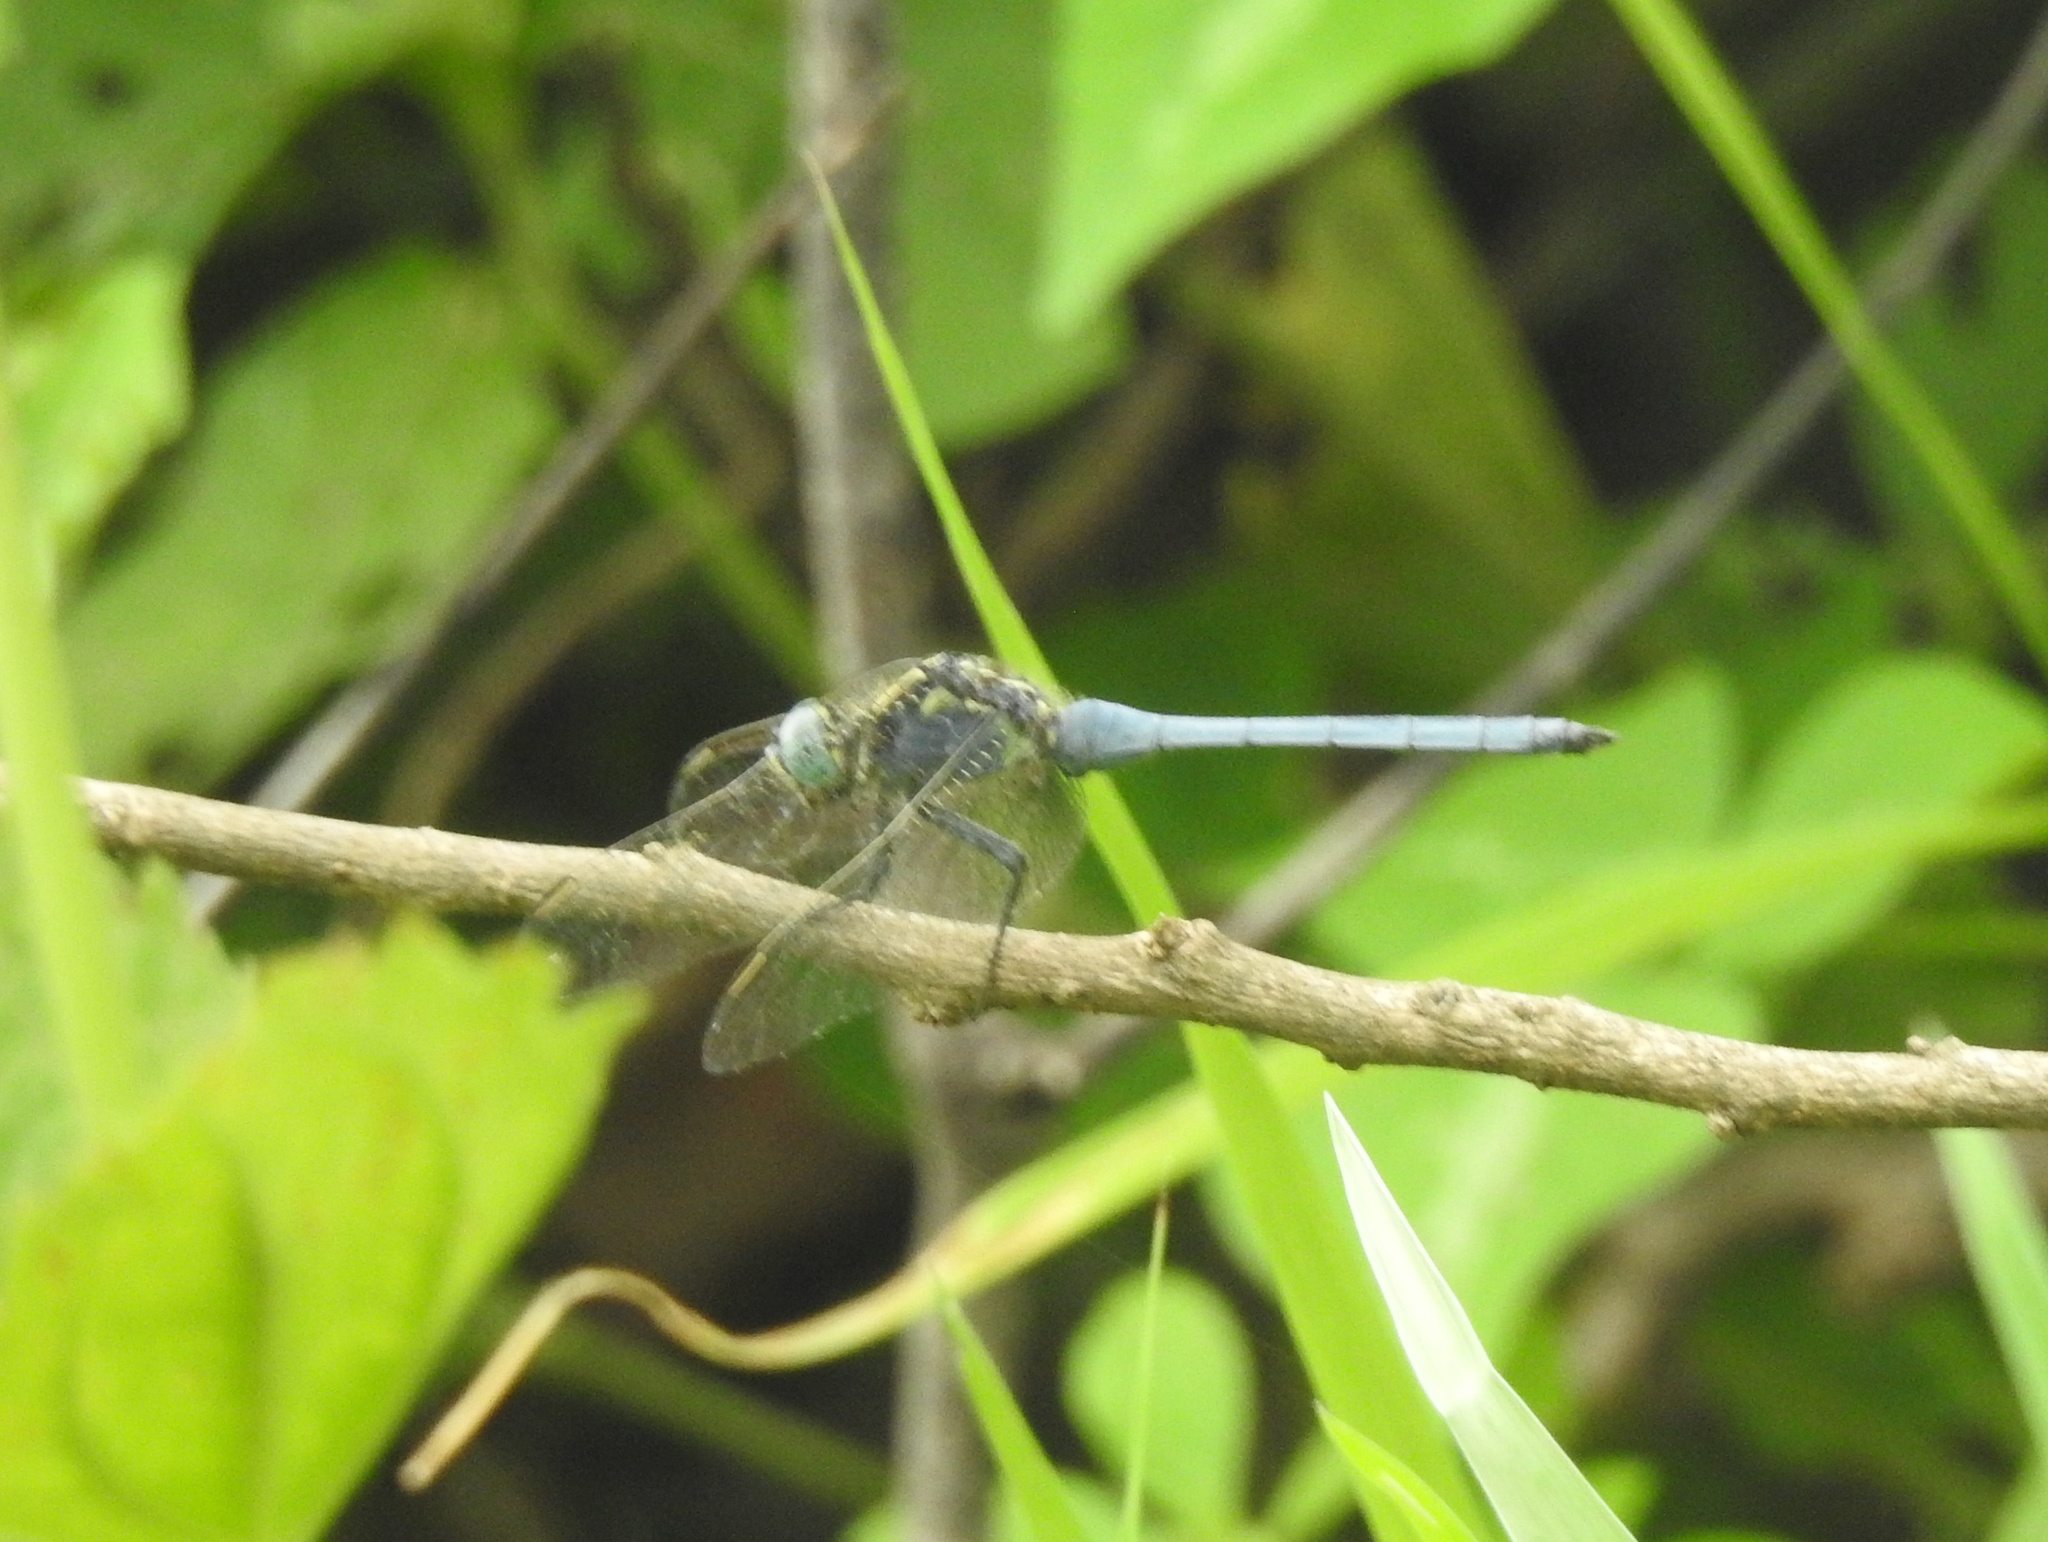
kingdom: Animalia
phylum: Arthropoda
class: Insecta
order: Odonata
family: Libellulidae
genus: Orthetrum
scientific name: Orthetrum luzonicum
